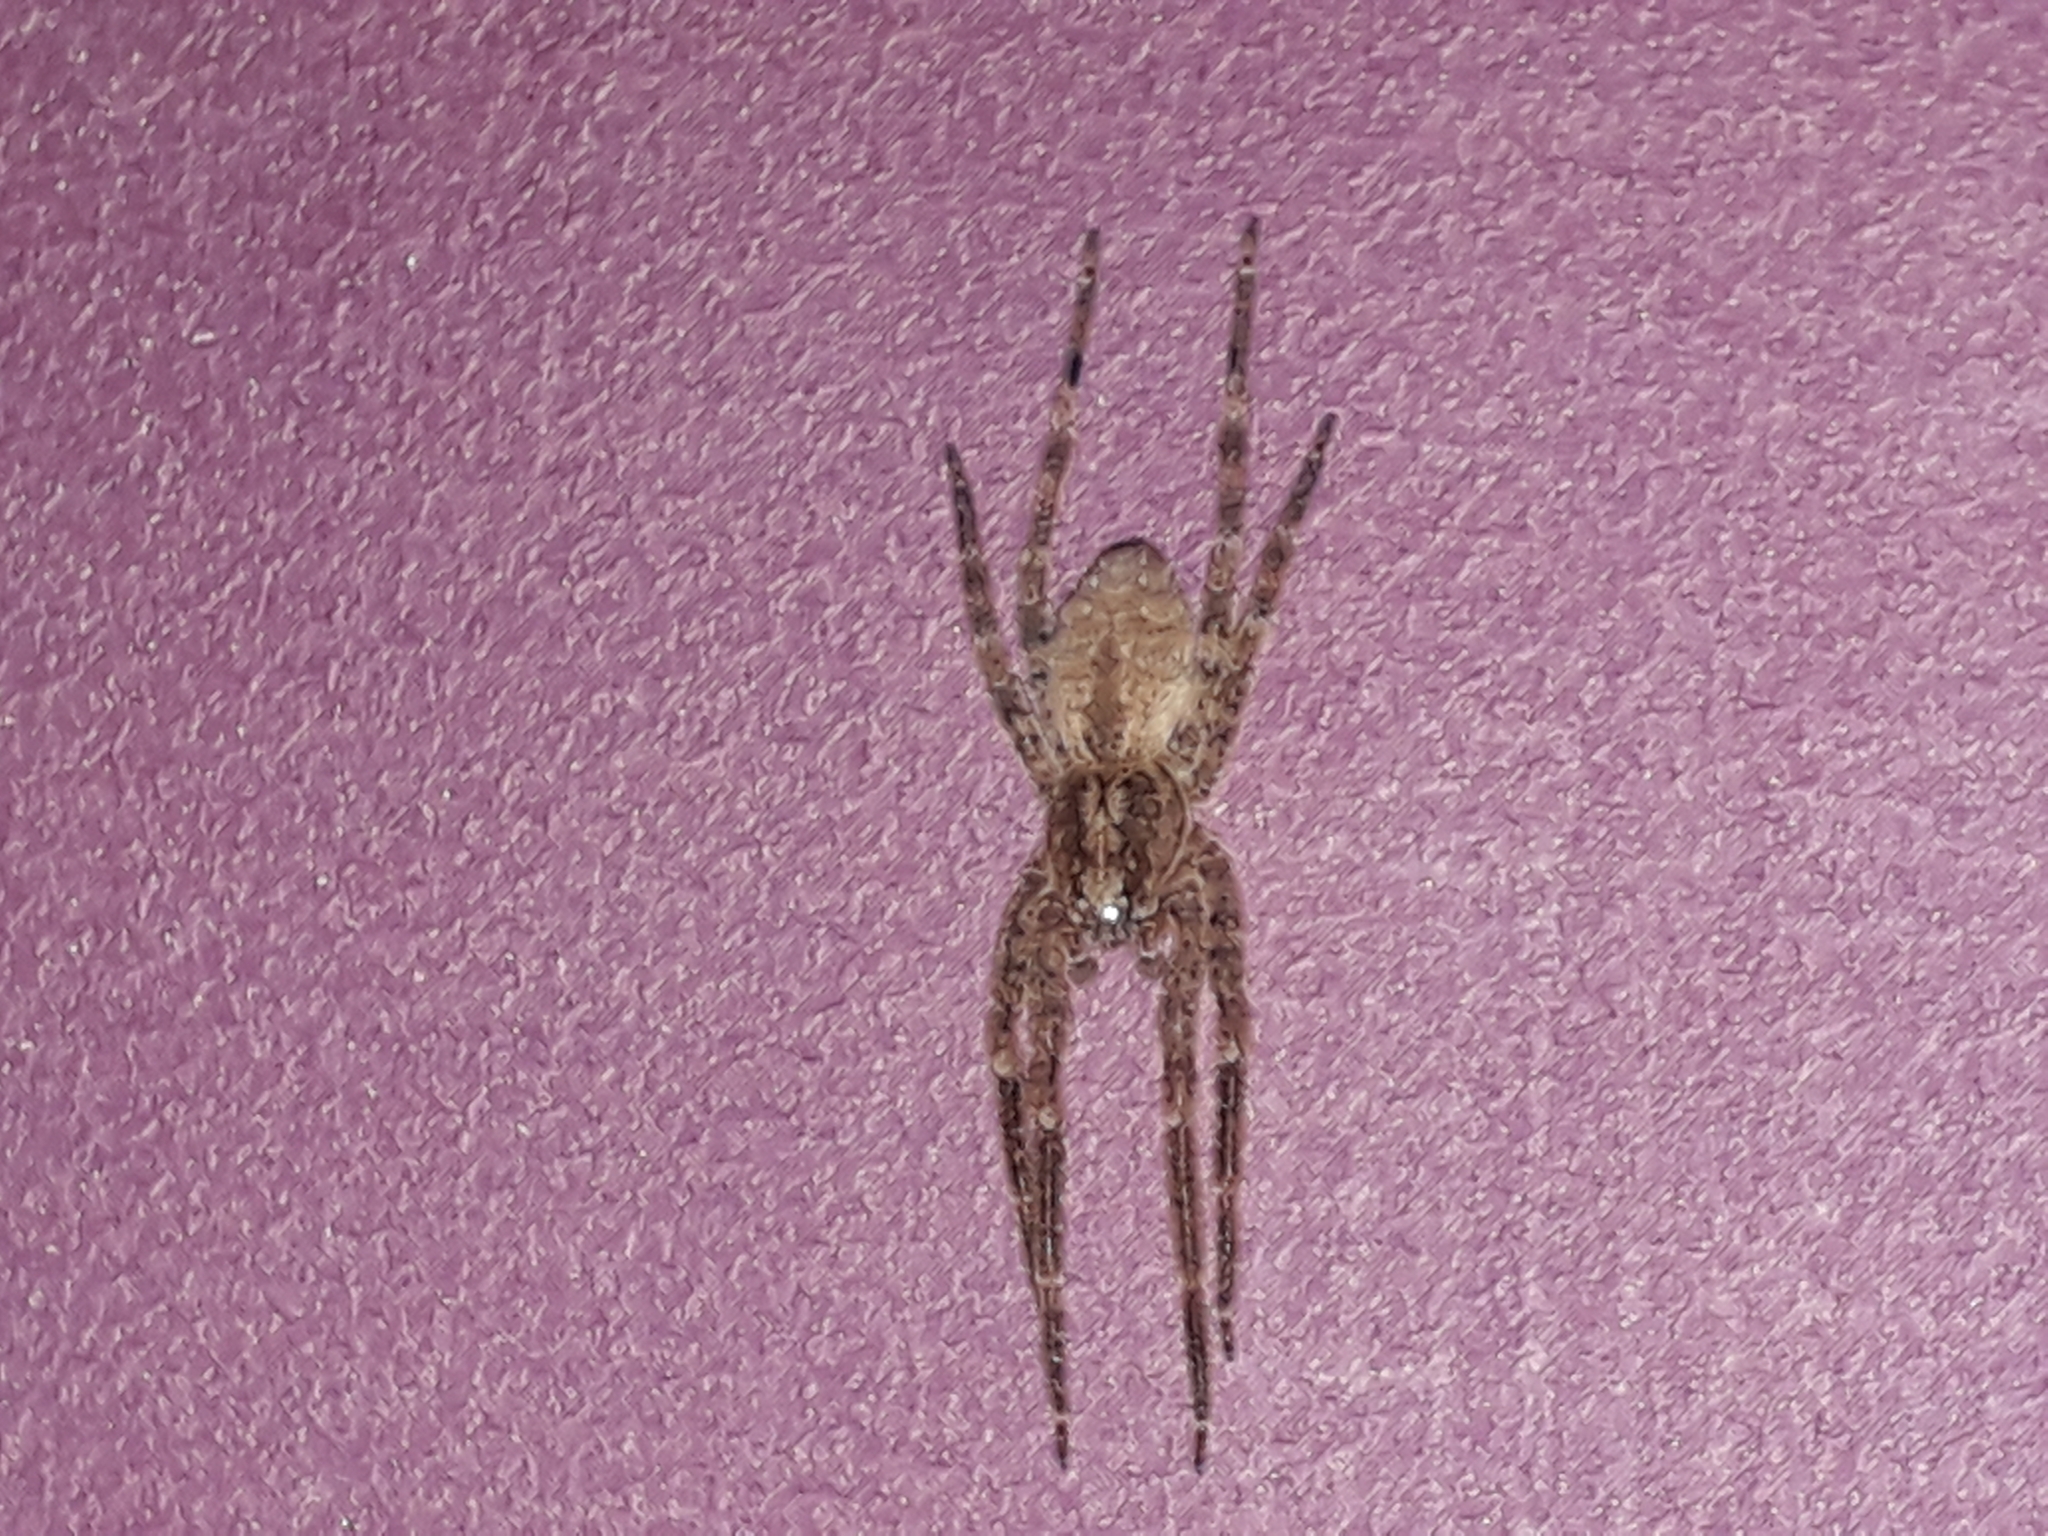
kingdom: Animalia
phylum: Arthropoda
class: Arachnida
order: Araneae
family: Zoropsidae
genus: Zoropsis
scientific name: Zoropsis spinimana
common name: Zoropsid spider
